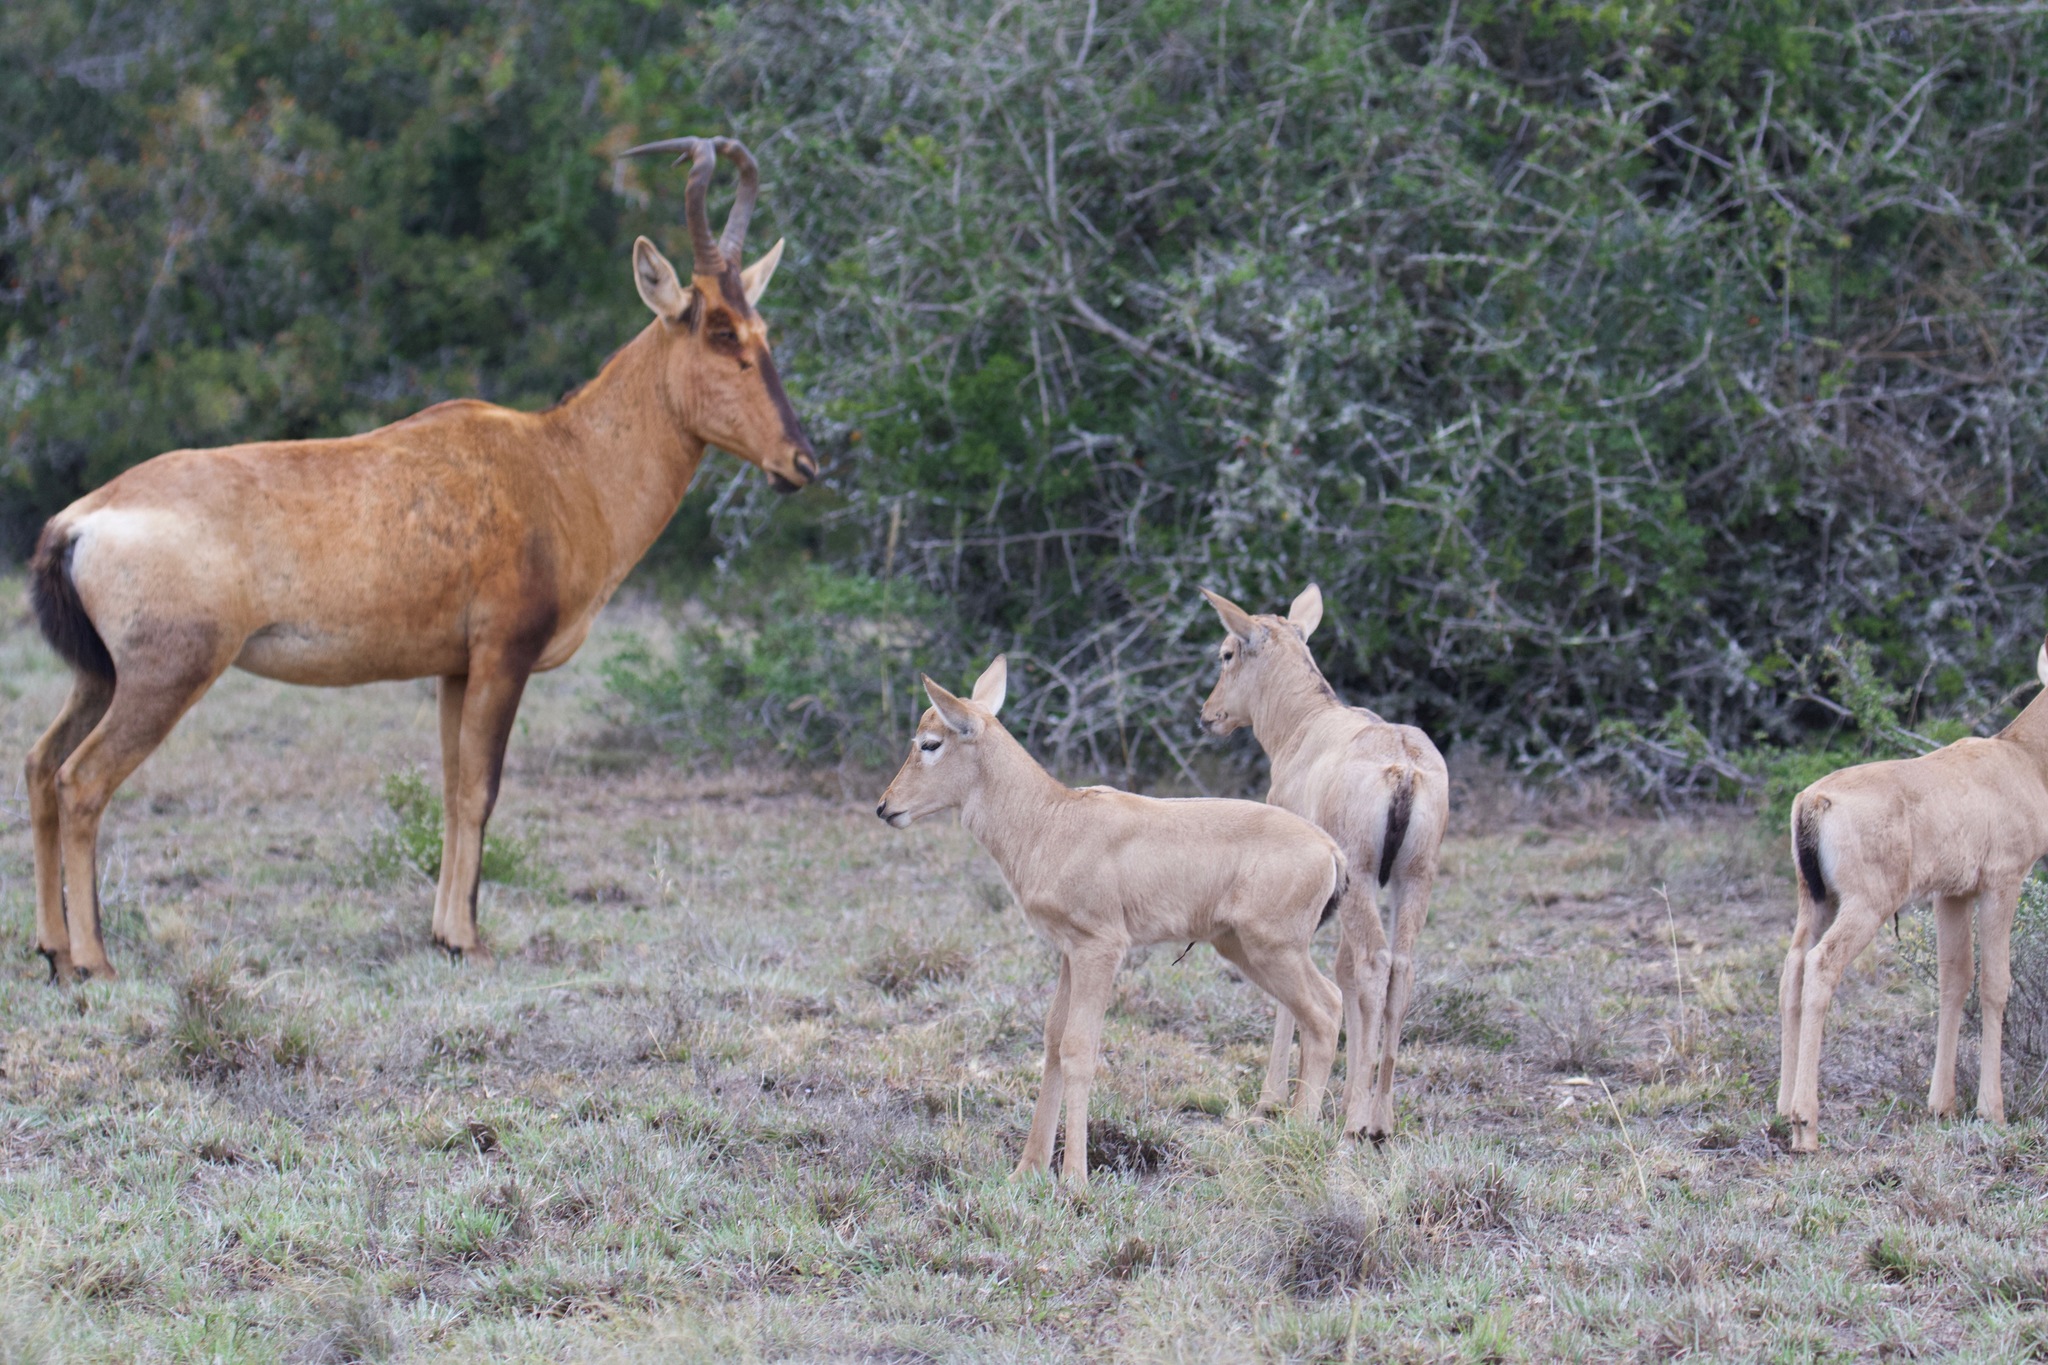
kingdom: Animalia
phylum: Chordata
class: Mammalia
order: Artiodactyla
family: Bovidae
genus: Alcelaphus
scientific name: Alcelaphus caama
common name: Red hartebeest
